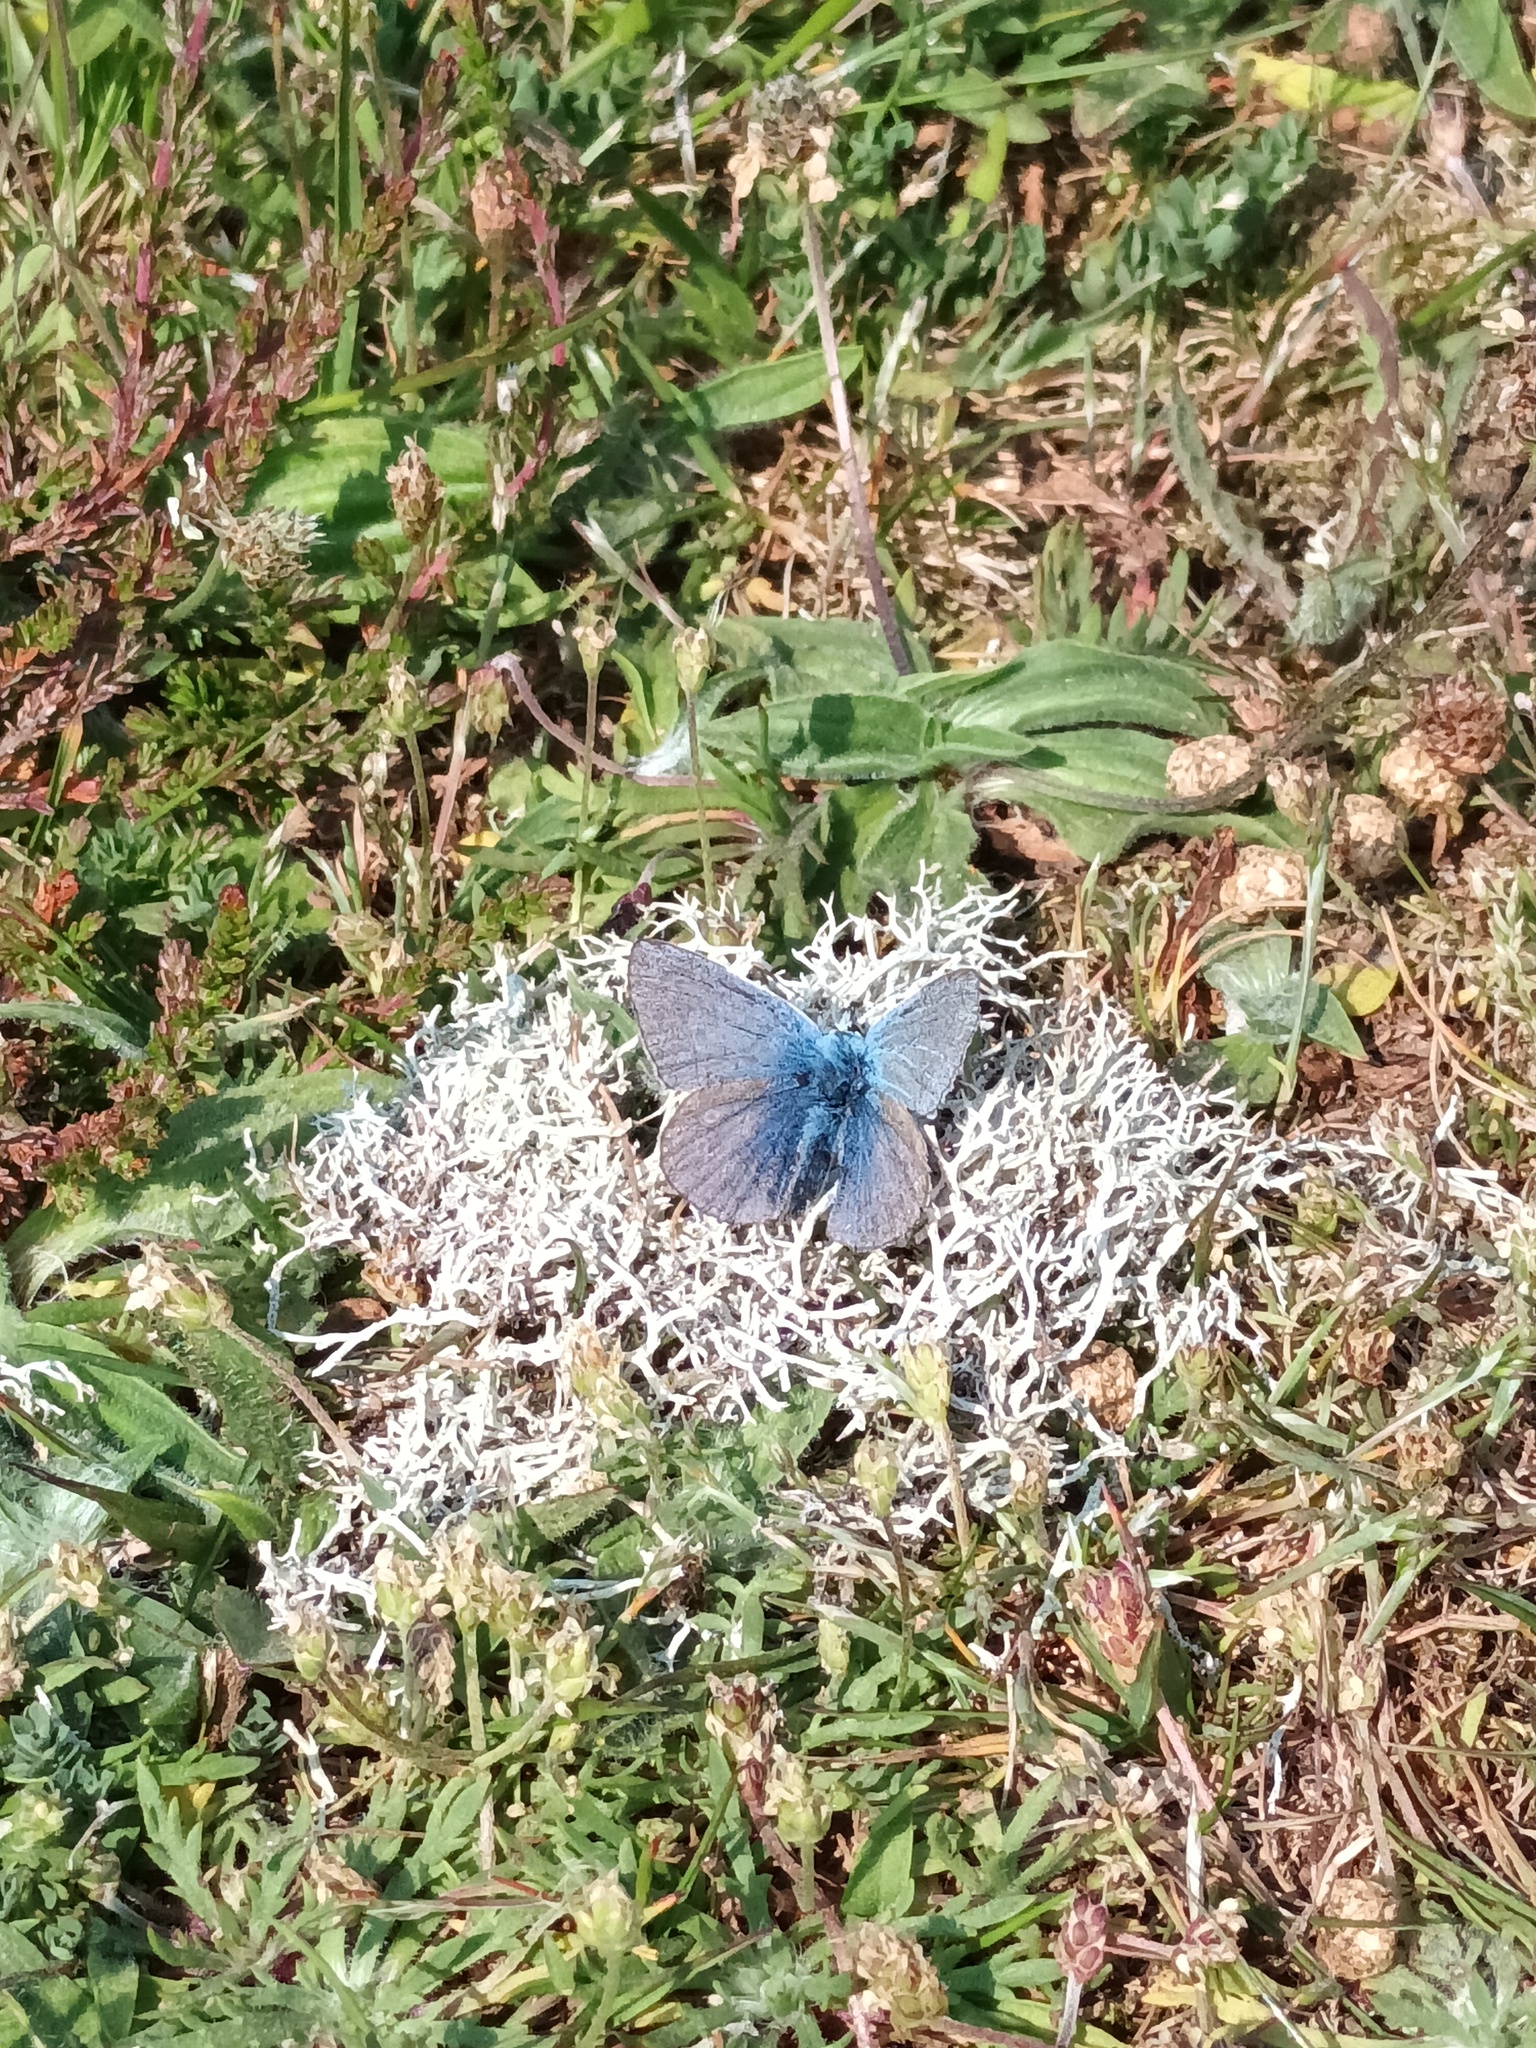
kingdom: Animalia
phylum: Arthropoda
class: Insecta
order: Lepidoptera
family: Lycaenidae
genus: Polyommatus
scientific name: Polyommatus icarus
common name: Common blue
